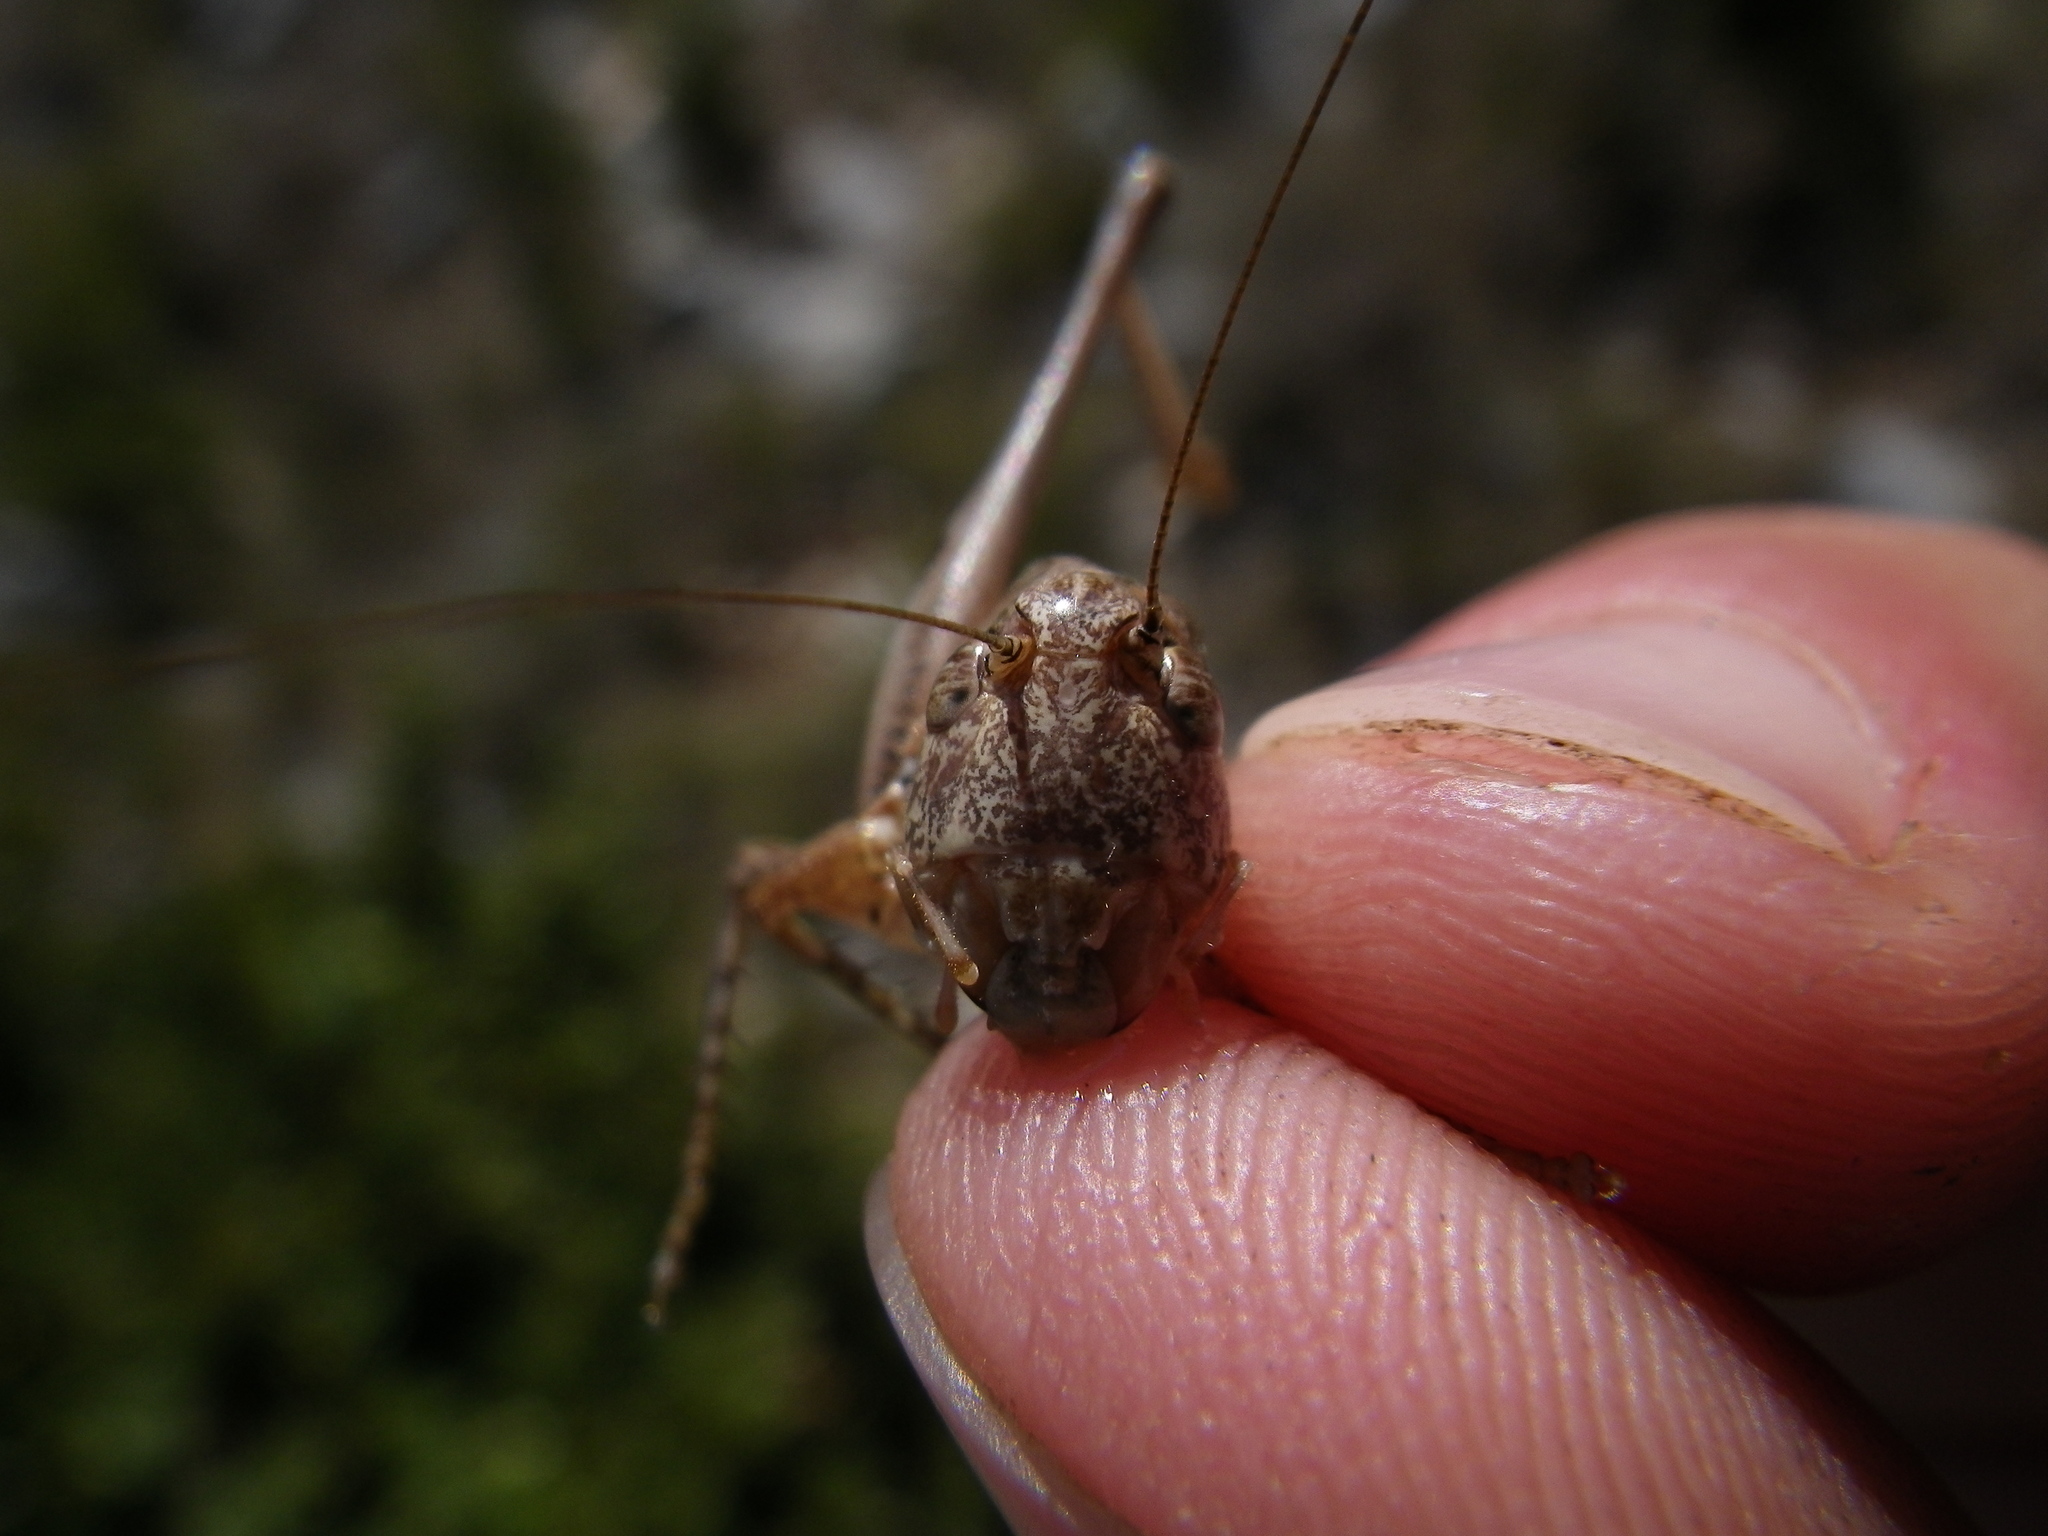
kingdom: Animalia
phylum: Arthropoda
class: Insecta
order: Orthoptera
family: Tettigoniidae
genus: Platycleis
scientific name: Platycleis albopunctata
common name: Grey bush-cricket
